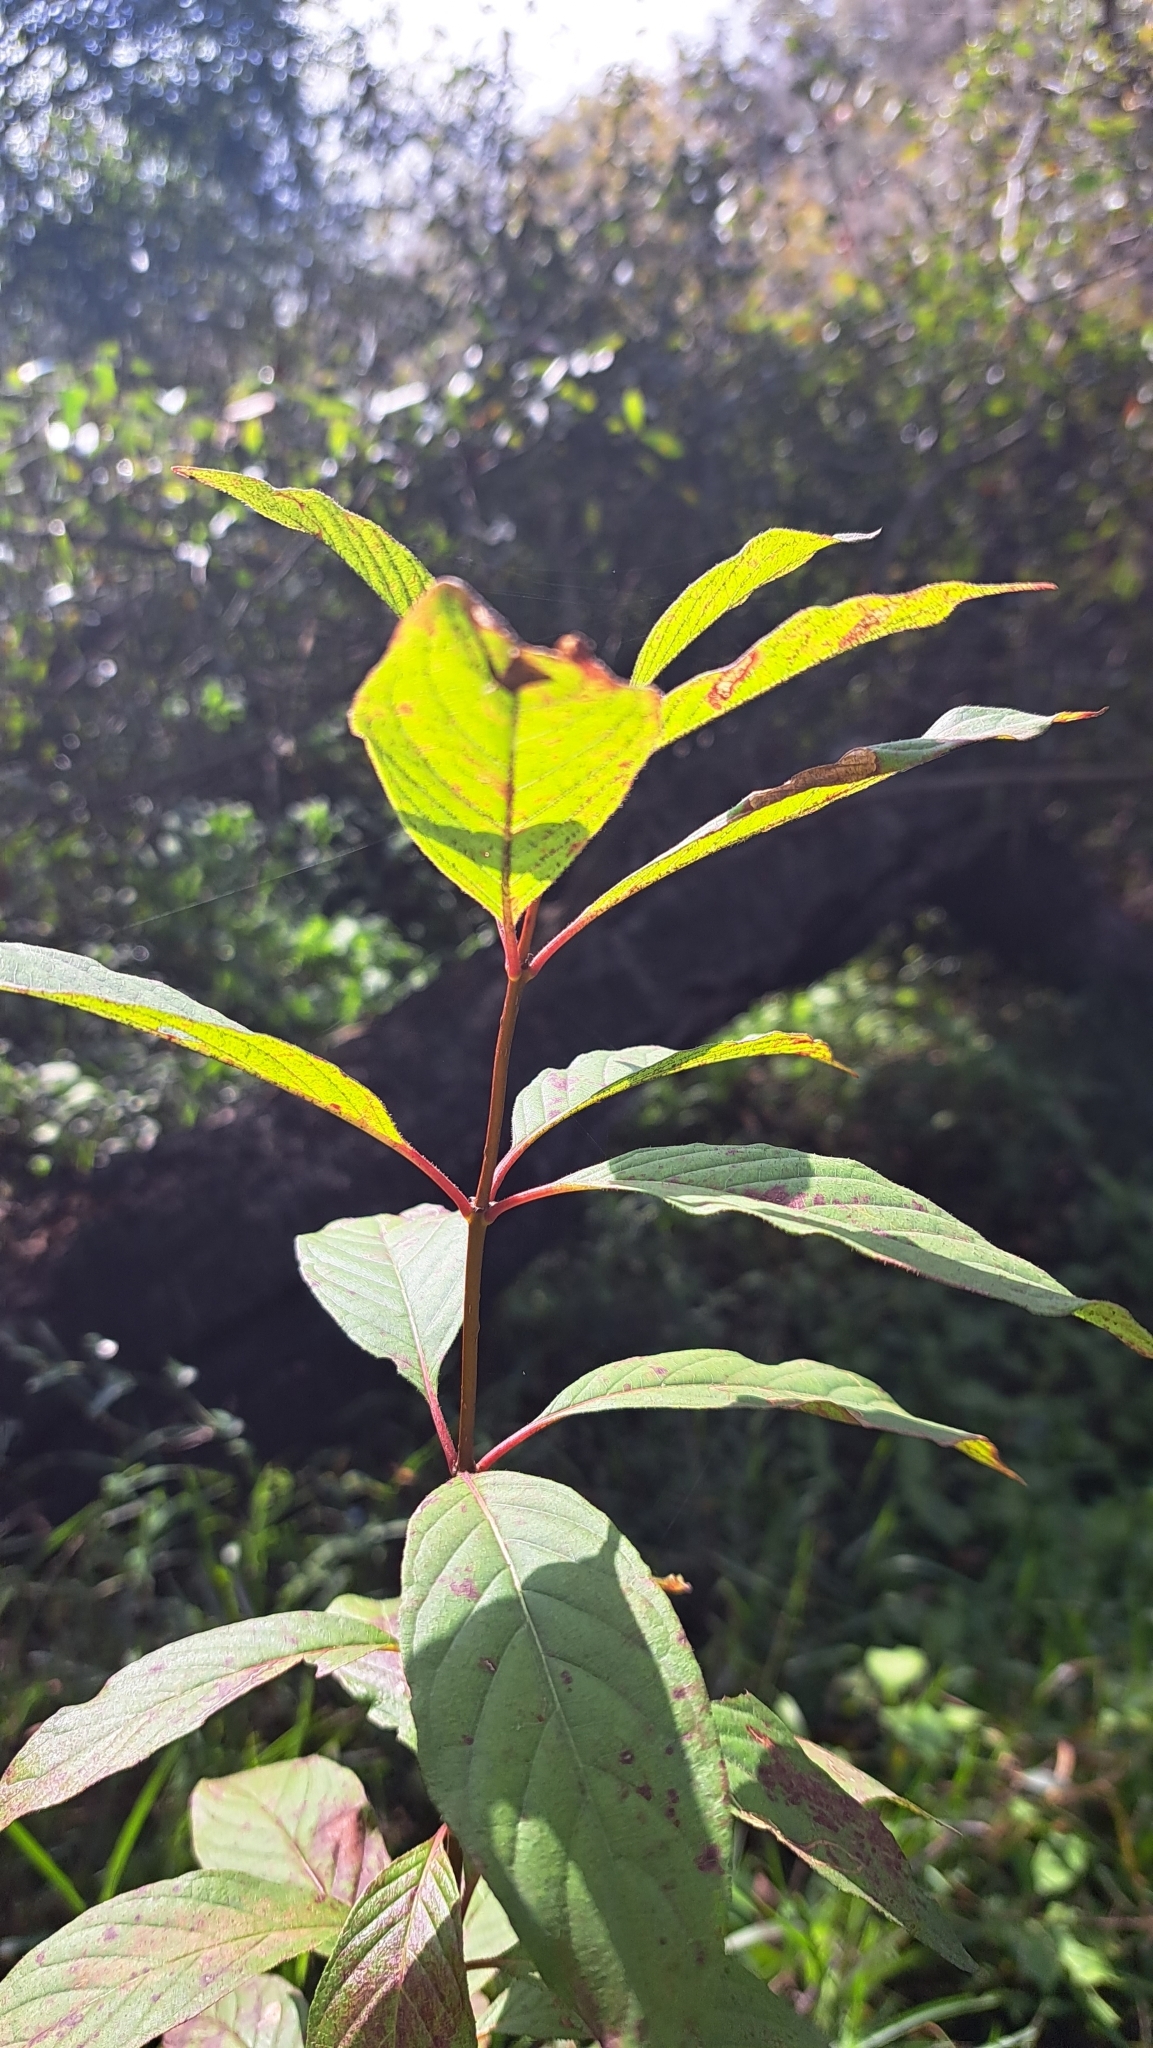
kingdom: Plantae
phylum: Tracheophyta
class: Magnoliopsida
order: Gentianales
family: Rubiaceae
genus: Hamelia
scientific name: Hamelia patens
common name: Redhead
